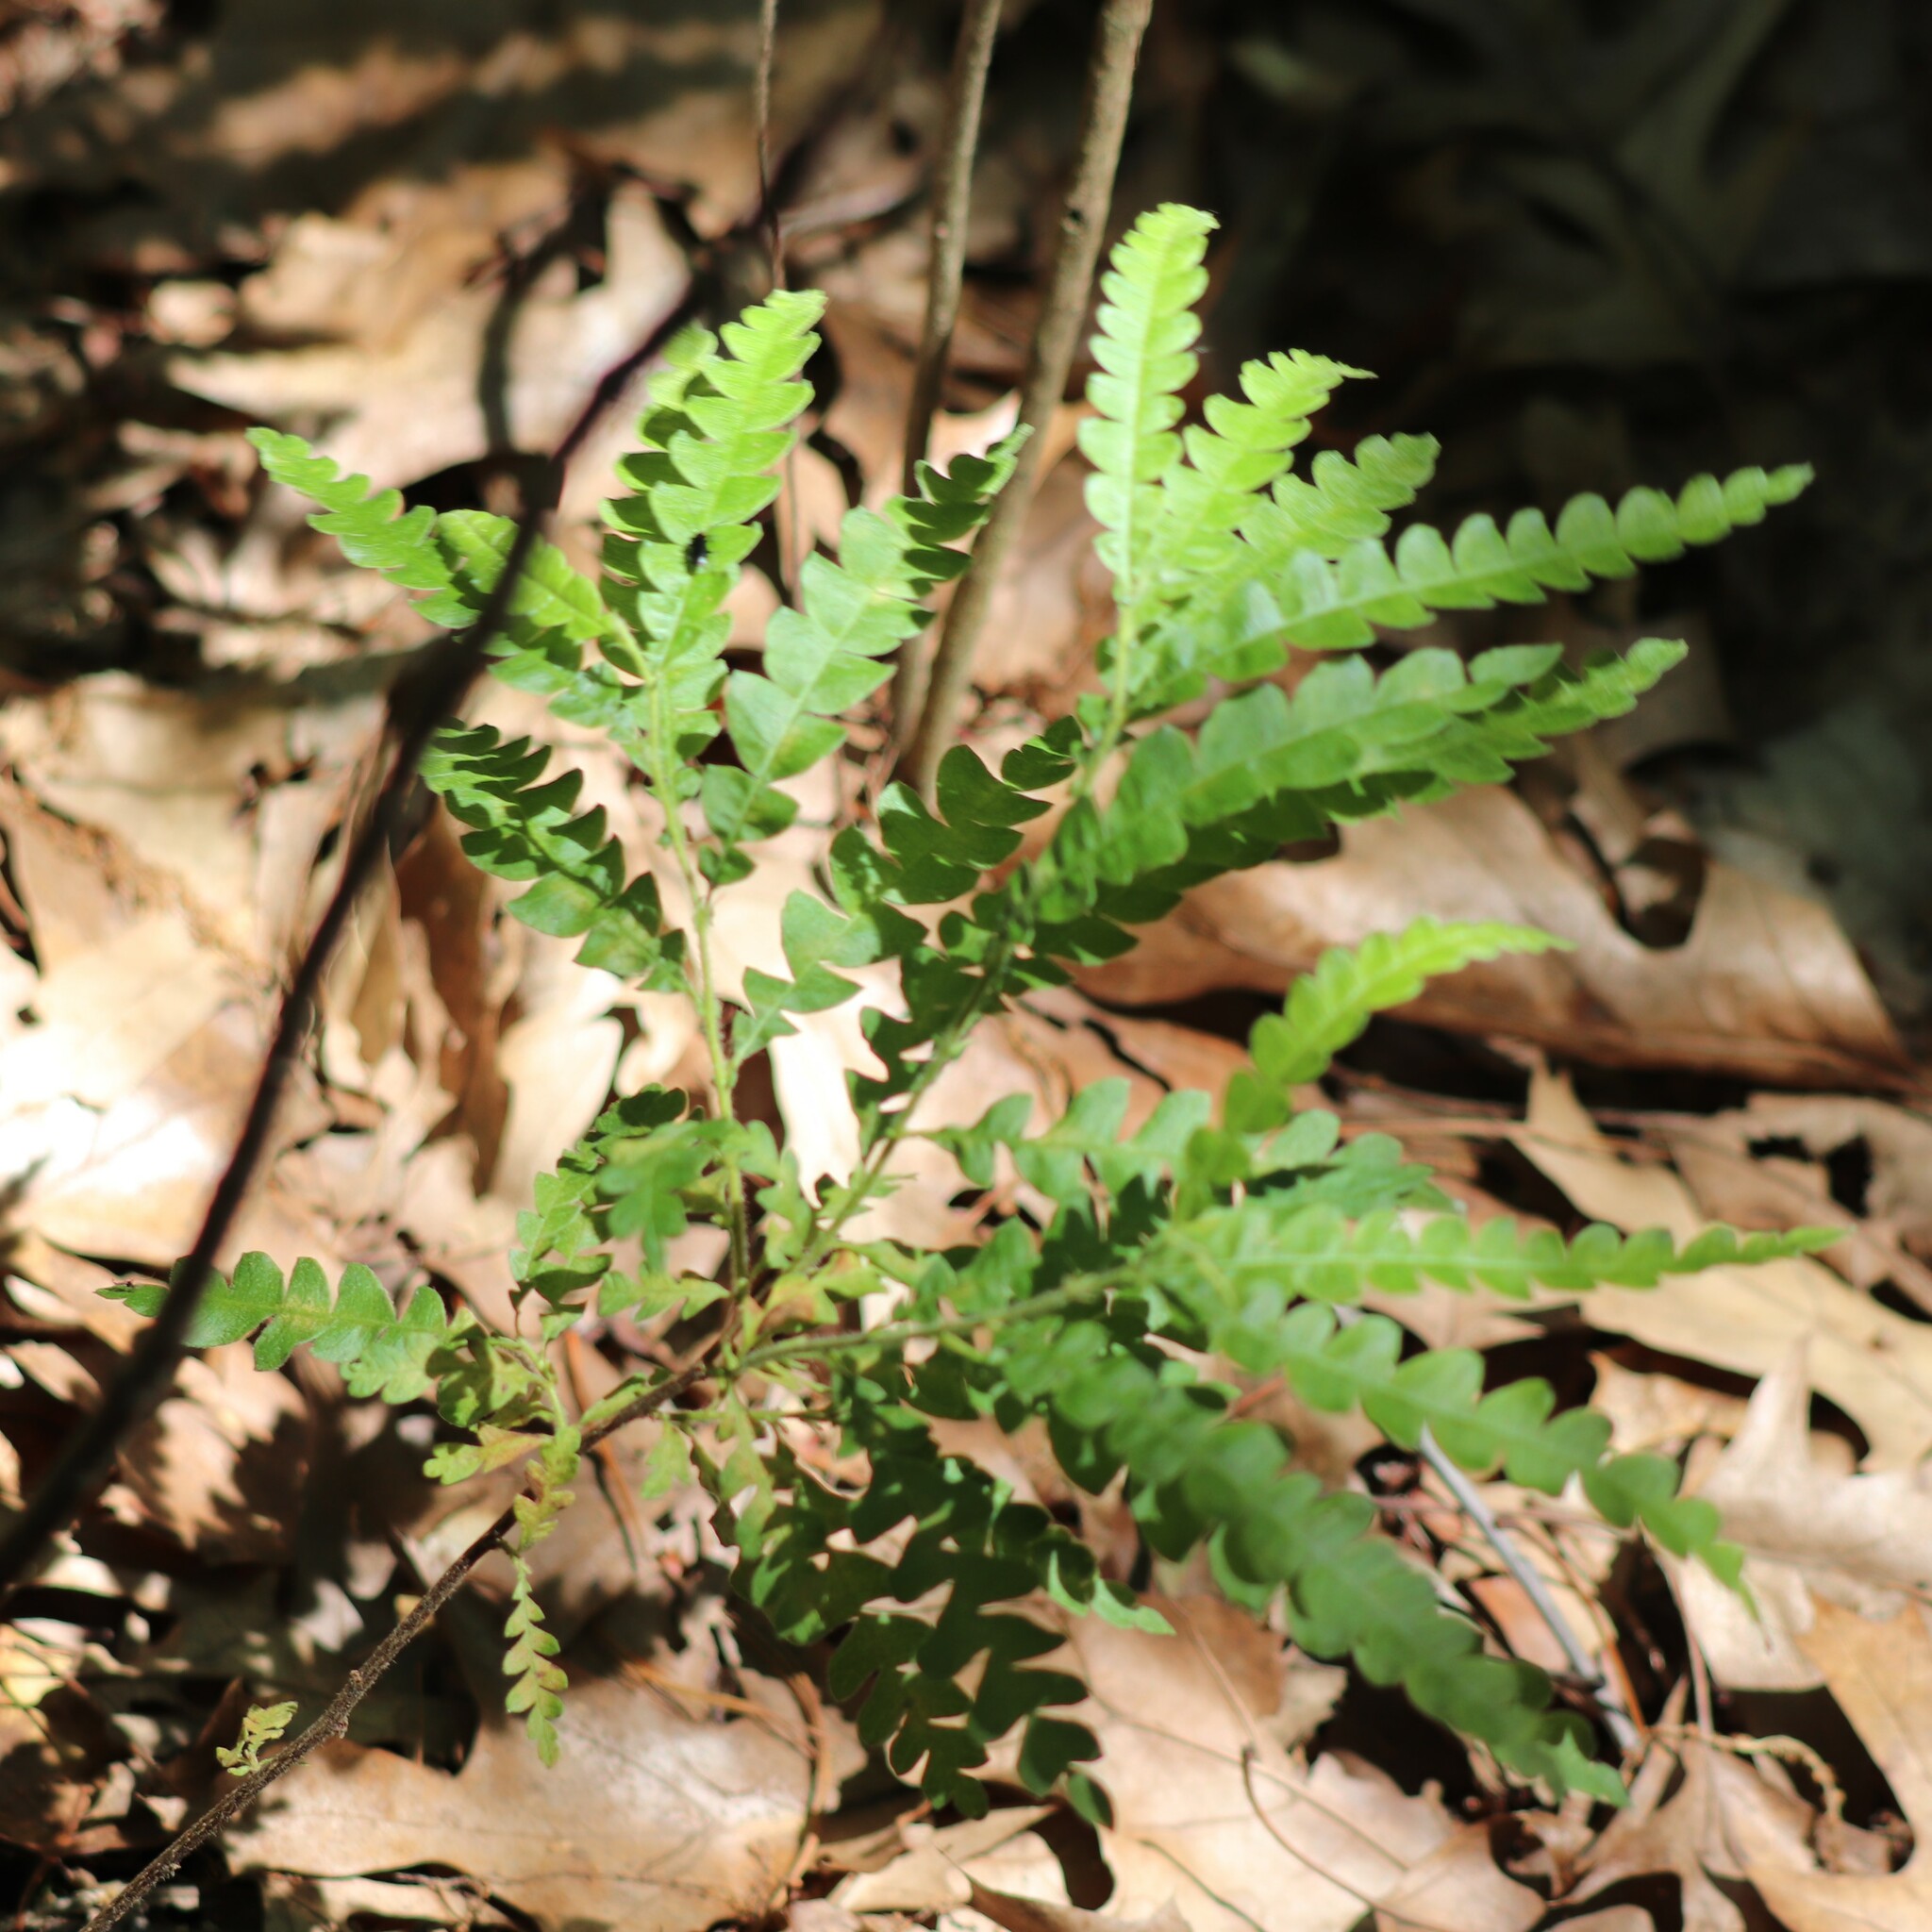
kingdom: Plantae
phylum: Tracheophyta
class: Magnoliopsida
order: Fagales
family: Myricaceae
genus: Comptonia
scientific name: Comptonia peregrina
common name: Sweet-fern
